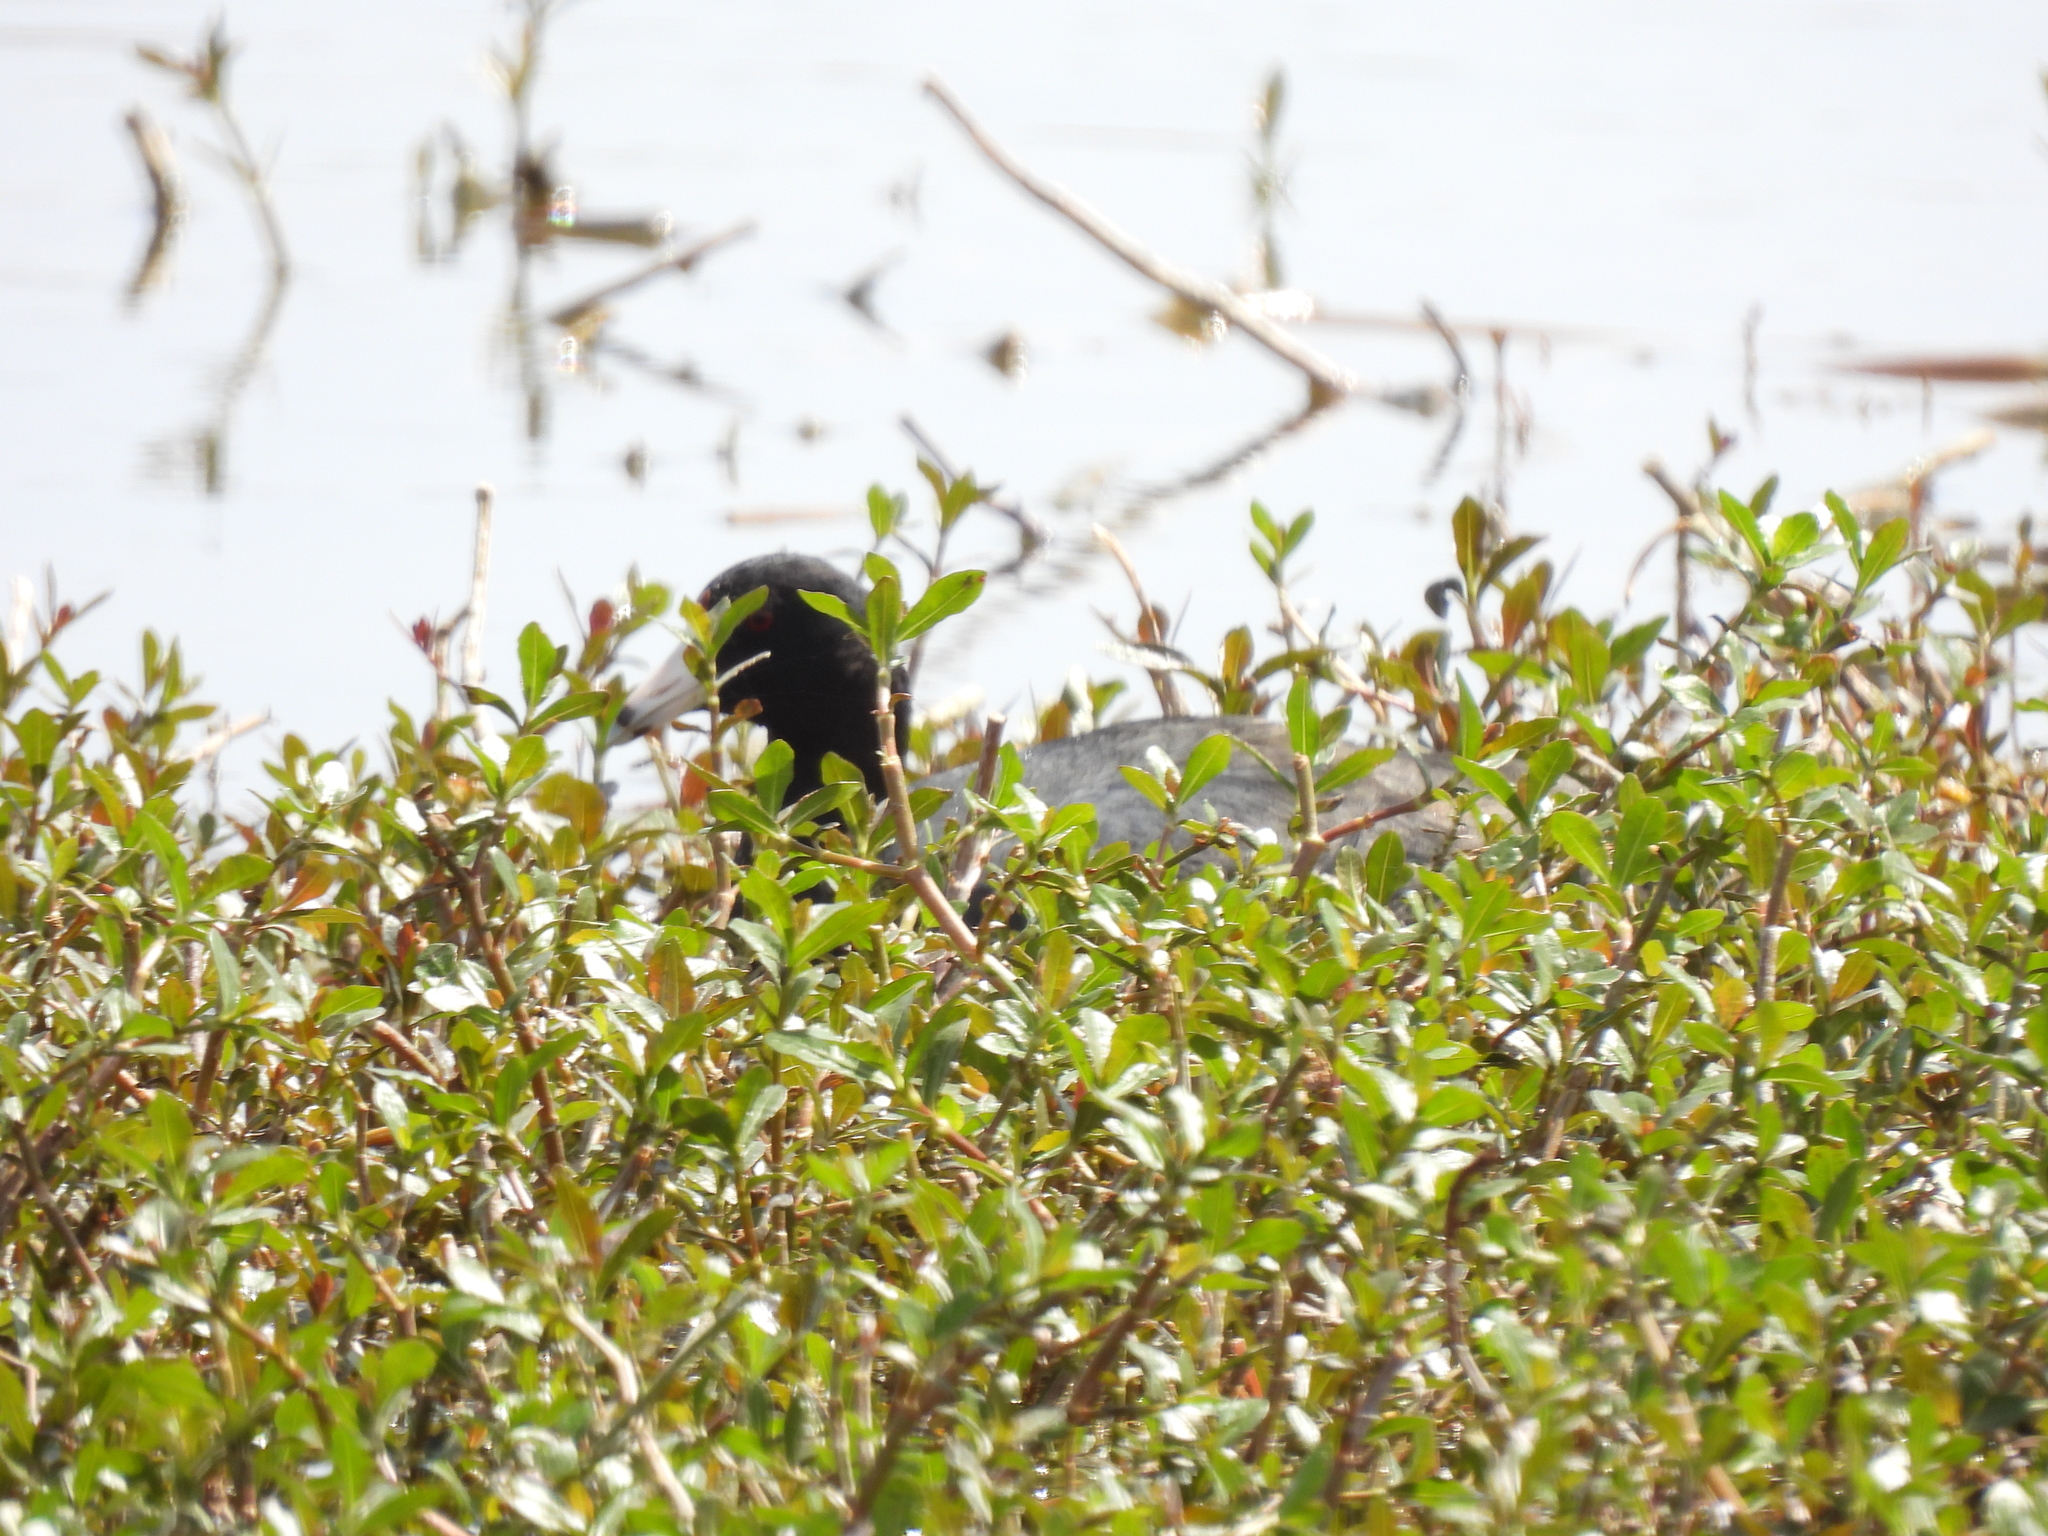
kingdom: Animalia
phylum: Chordata
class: Aves
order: Gruiformes
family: Rallidae
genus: Fulica
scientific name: Fulica americana
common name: American coot
